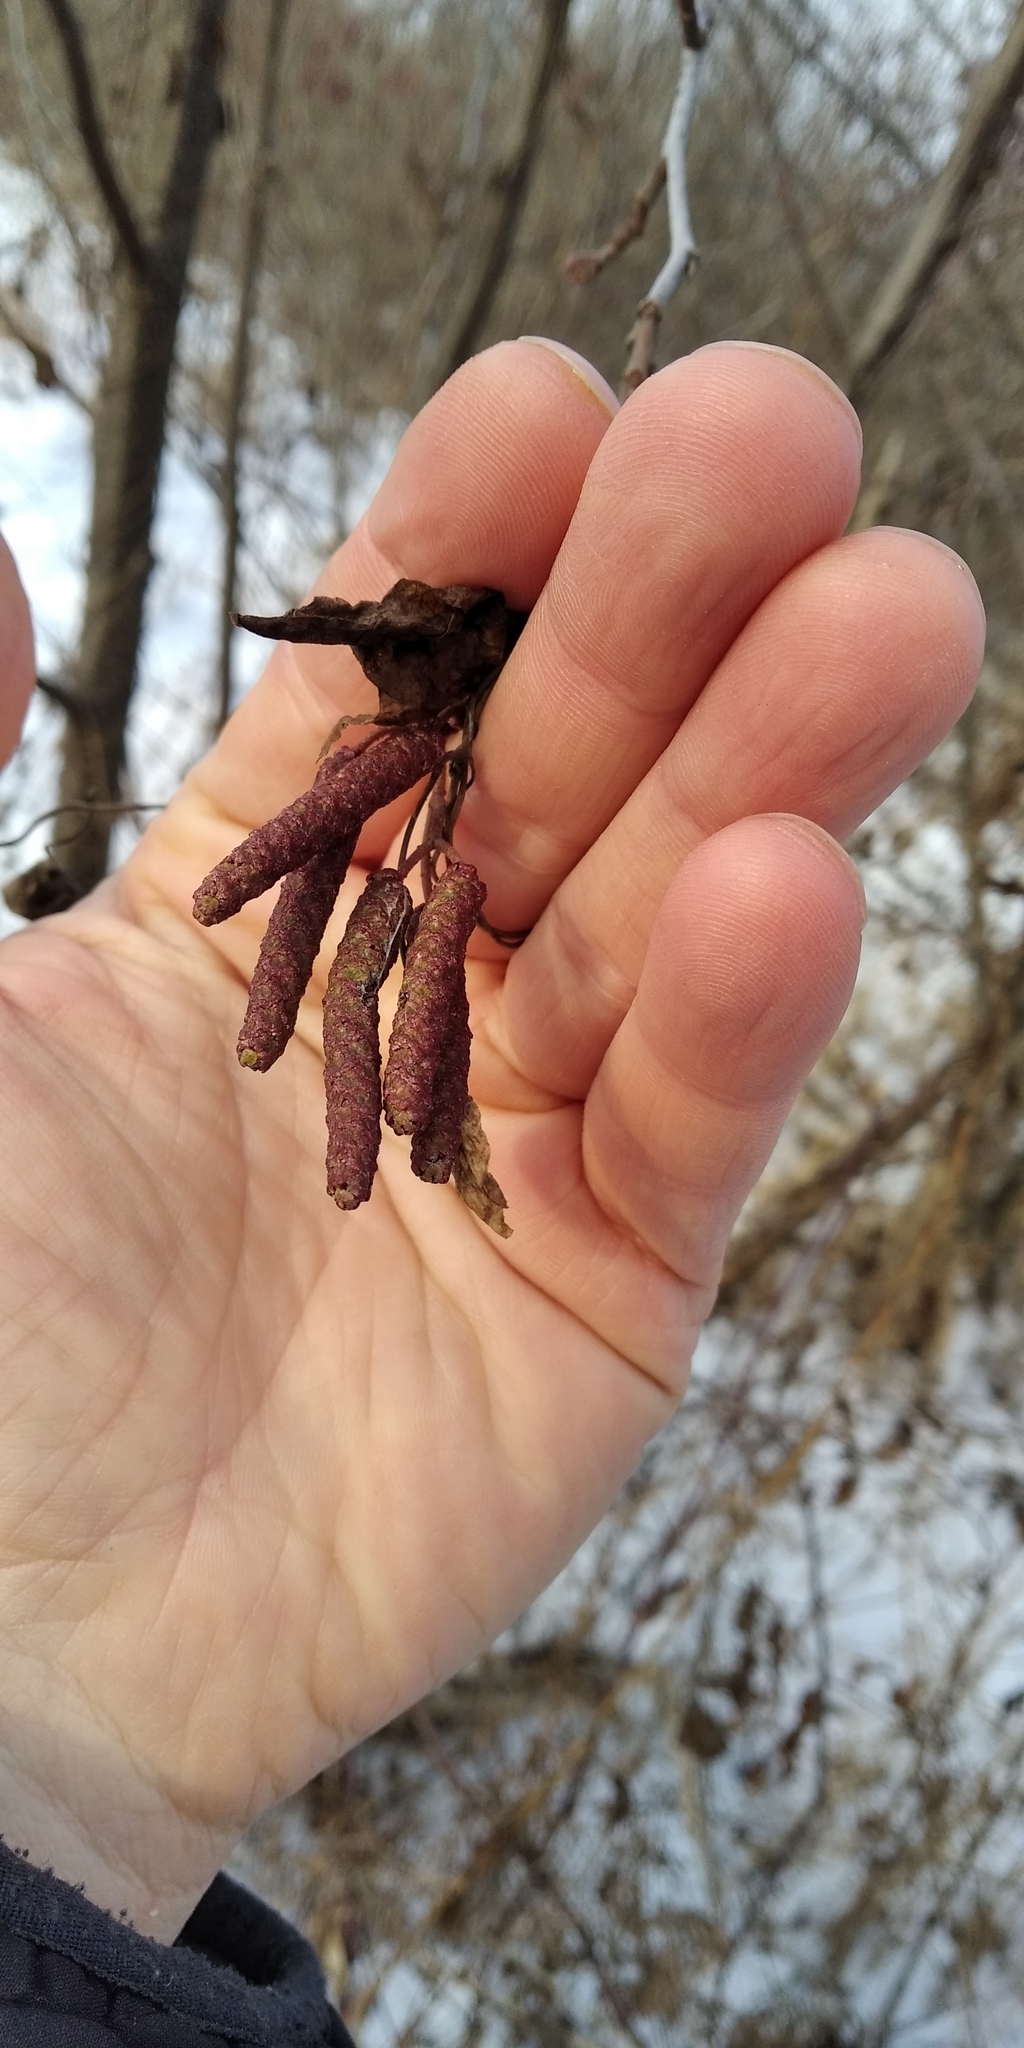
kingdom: Plantae
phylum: Tracheophyta
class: Magnoliopsida
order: Fagales
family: Betulaceae
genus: Alnus
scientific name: Alnus glutinosa
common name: Black alder
